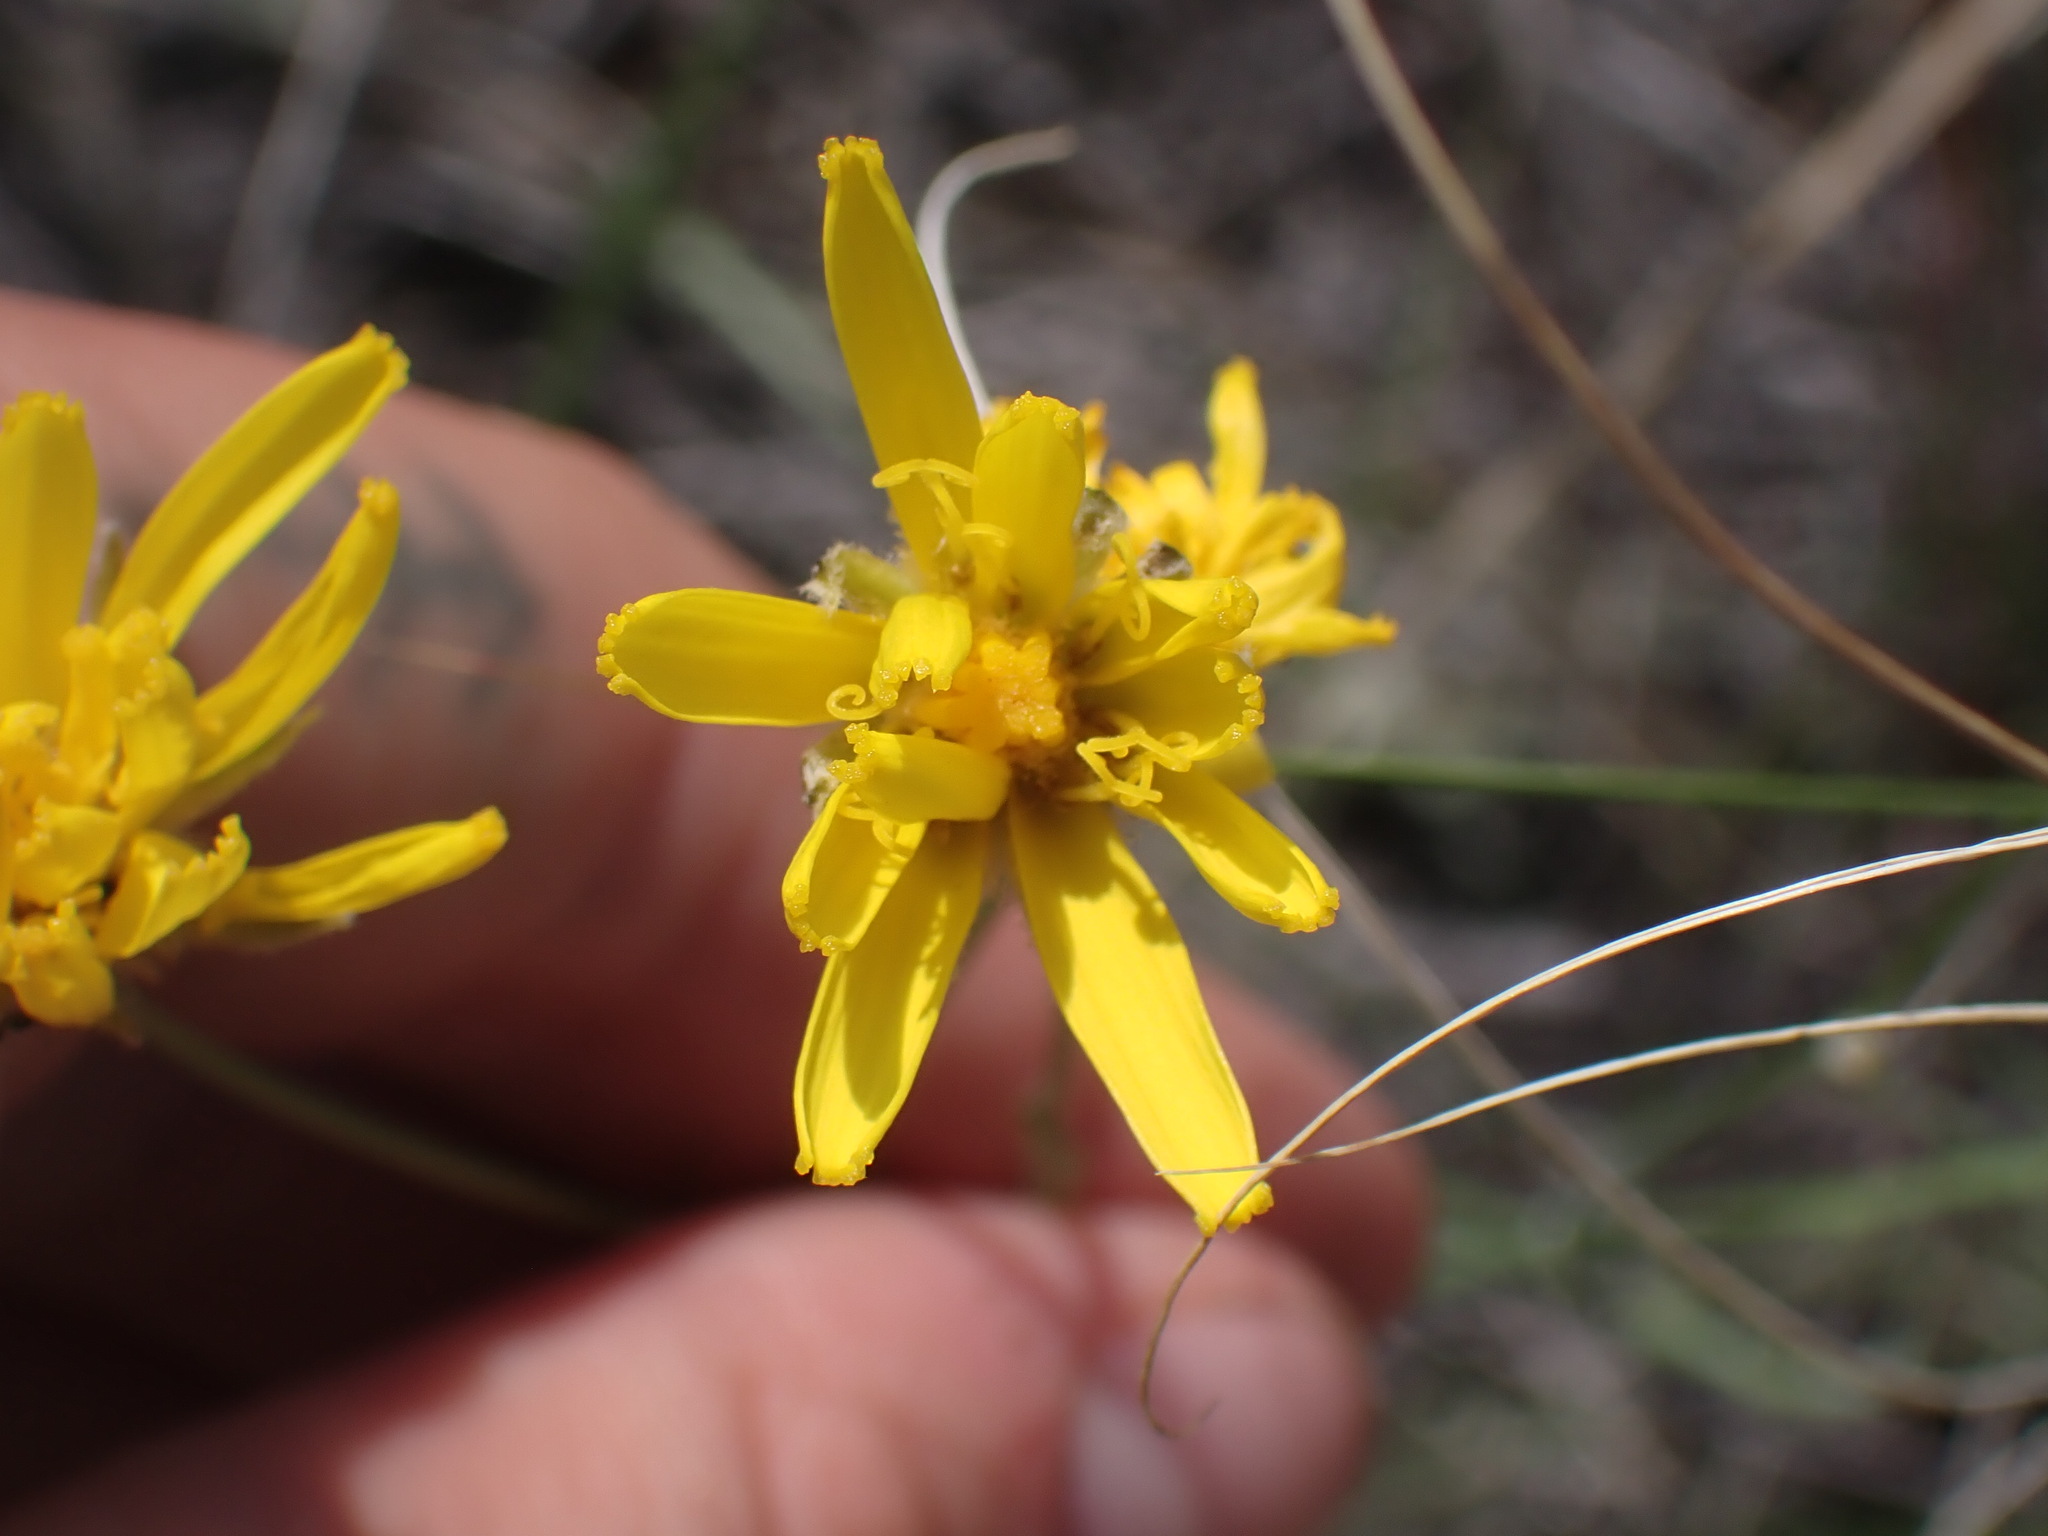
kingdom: Plantae
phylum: Tracheophyta
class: Magnoliopsida
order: Asterales
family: Asteraceae
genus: Crepis
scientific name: Crepis atribarba
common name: Dark hawk's-beard
